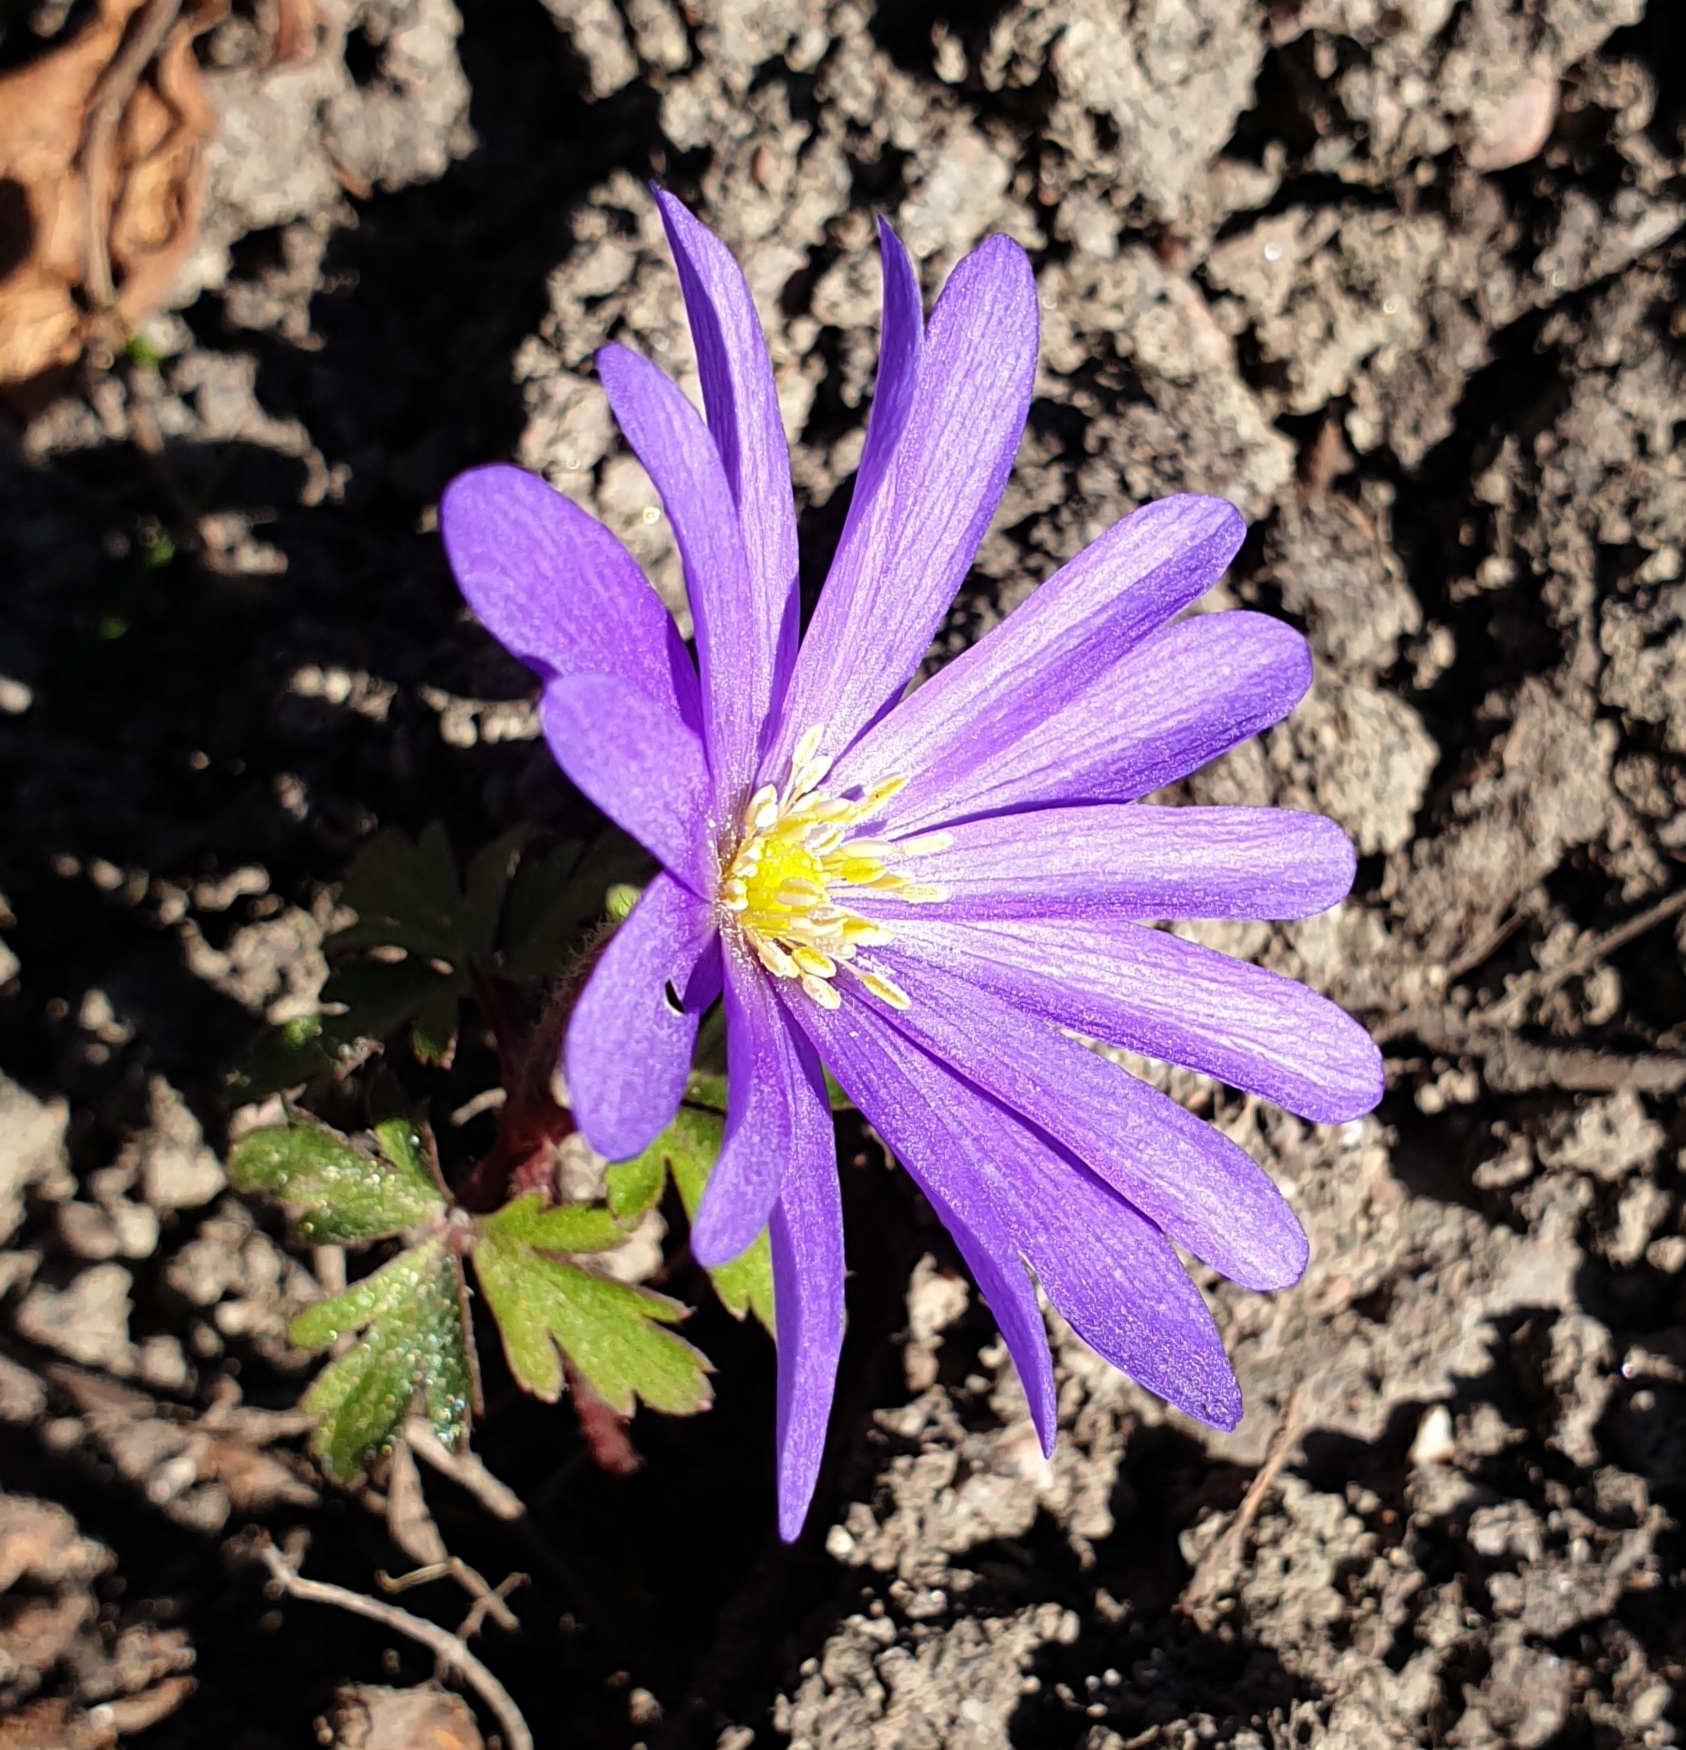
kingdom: Plantae
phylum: Tracheophyta
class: Magnoliopsida
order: Ranunculales
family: Ranunculaceae
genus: Anemone
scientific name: Anemone blanda
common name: Balkan anemone
